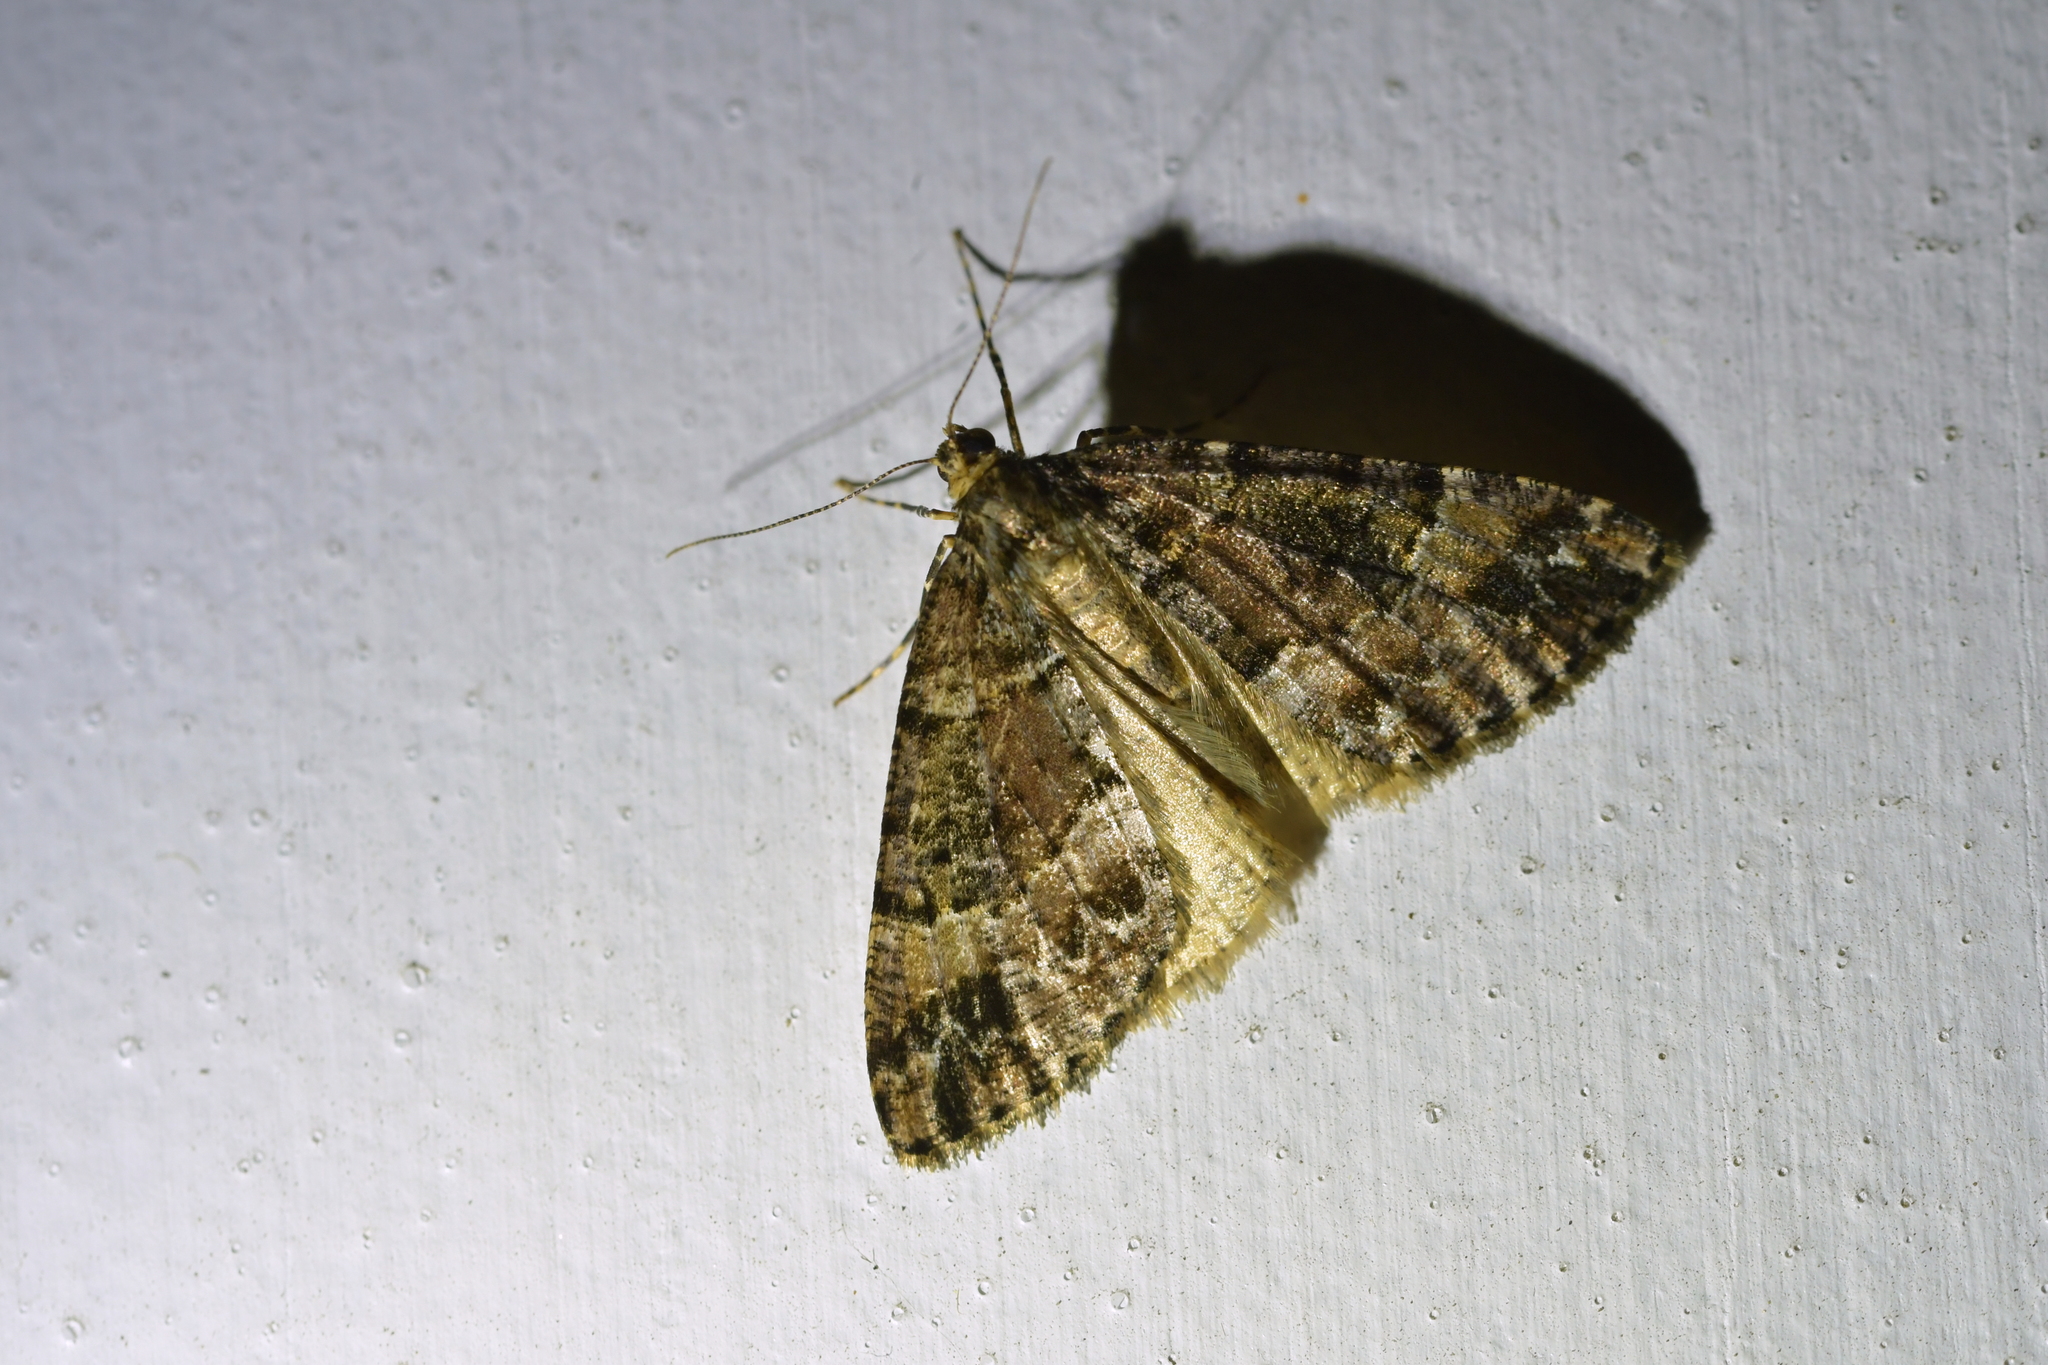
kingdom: Animalia
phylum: Arthropoda
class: Insecta
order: Lepidoptera
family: Geometridae
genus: Pseudocoremia
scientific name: Pseudocoremia productata
